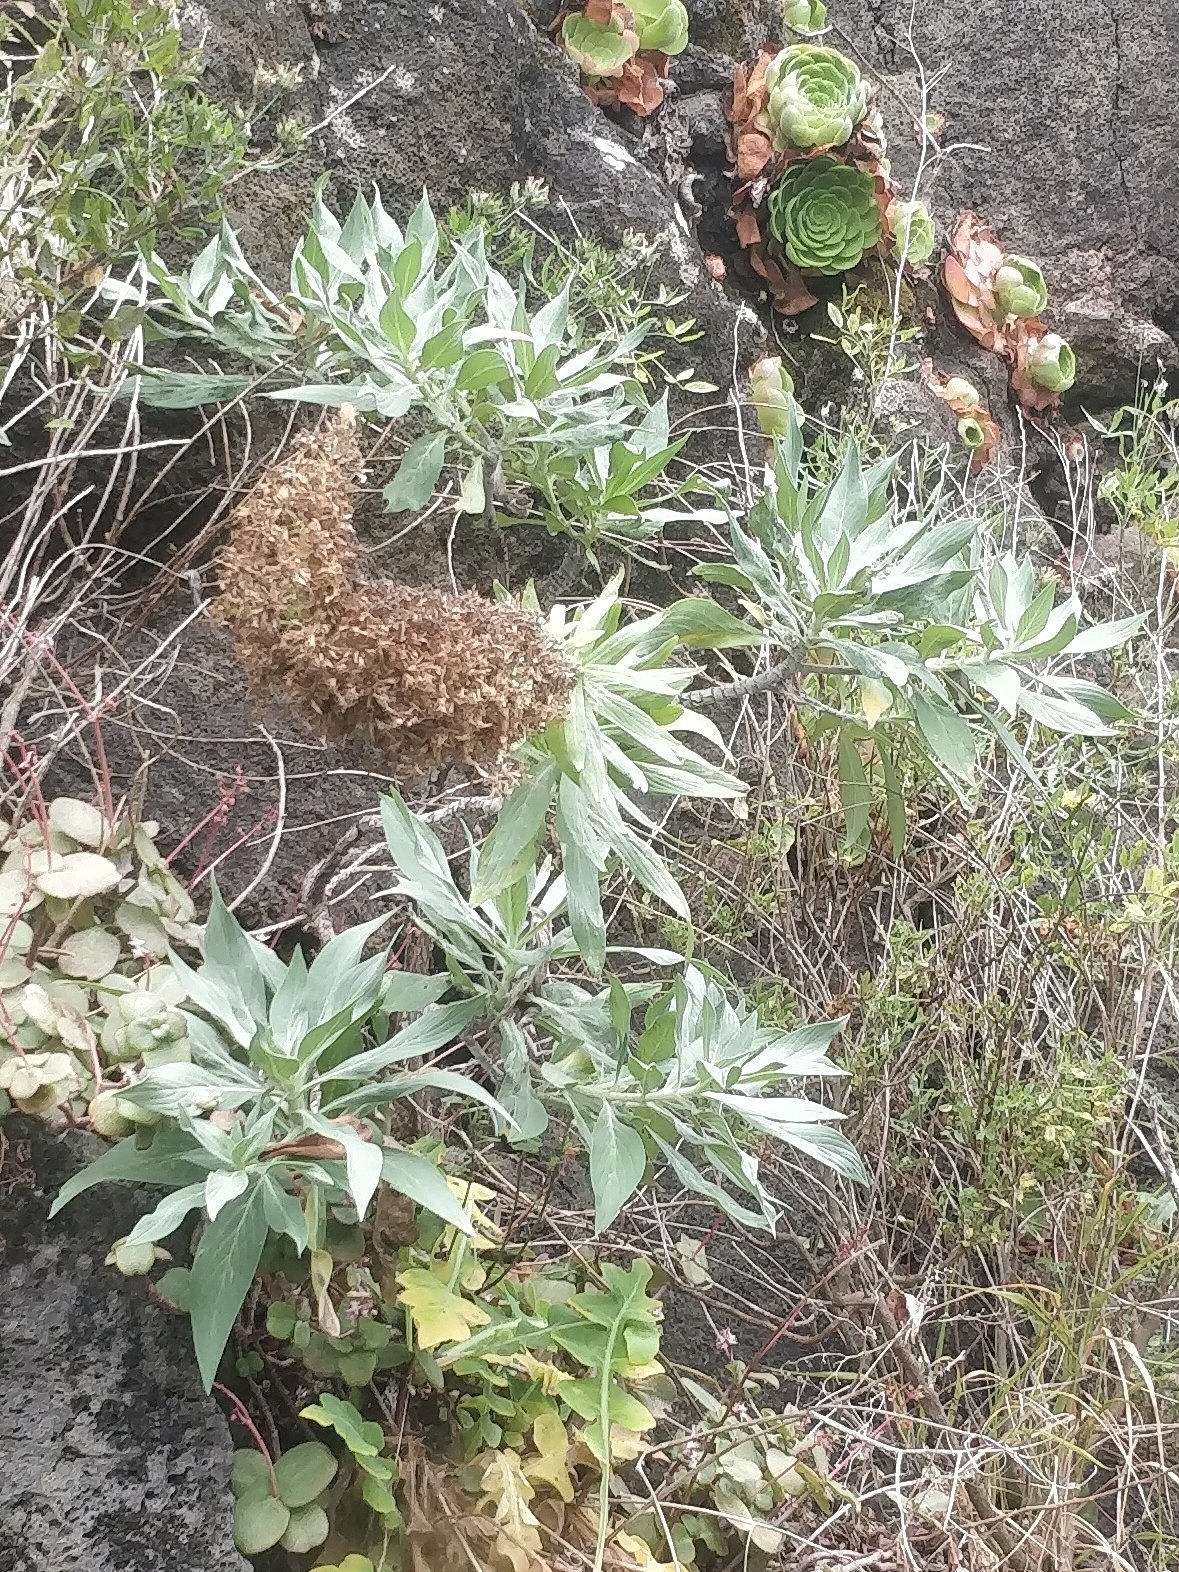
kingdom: Plantae
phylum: Tracheophyta
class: Magnoliopsida
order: Boraginales
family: Boraginaceae
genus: Echium
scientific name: Echium nervosum
